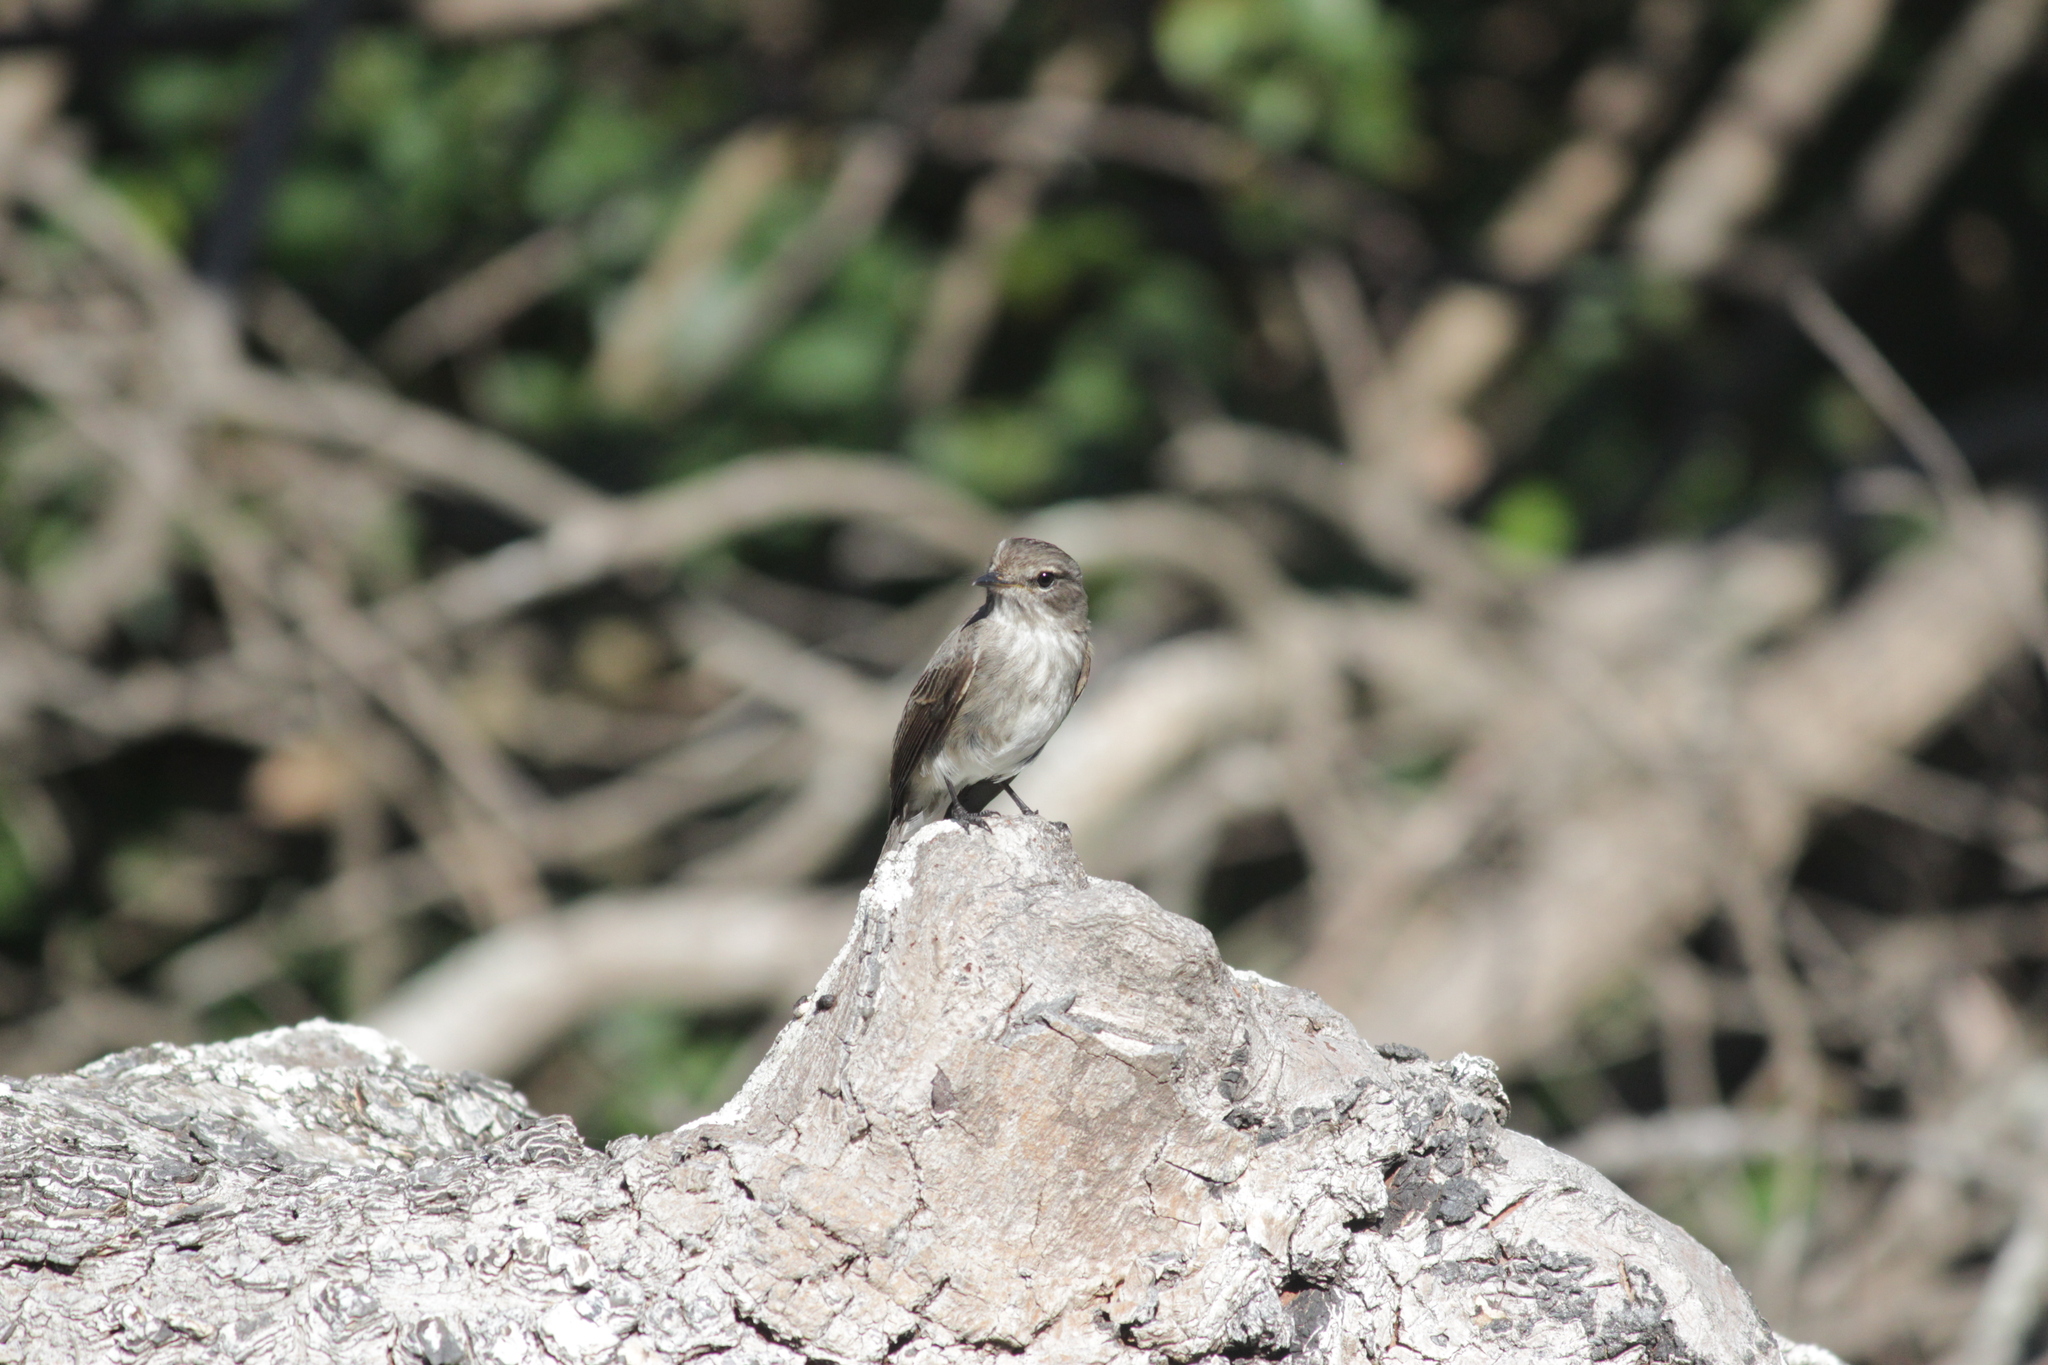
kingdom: Animalia
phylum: Chordata
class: Aves
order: Passeriformes
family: Muscicapidae
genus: Muscicapa
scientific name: Muscicapa adusta
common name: African dusky flycatcher
